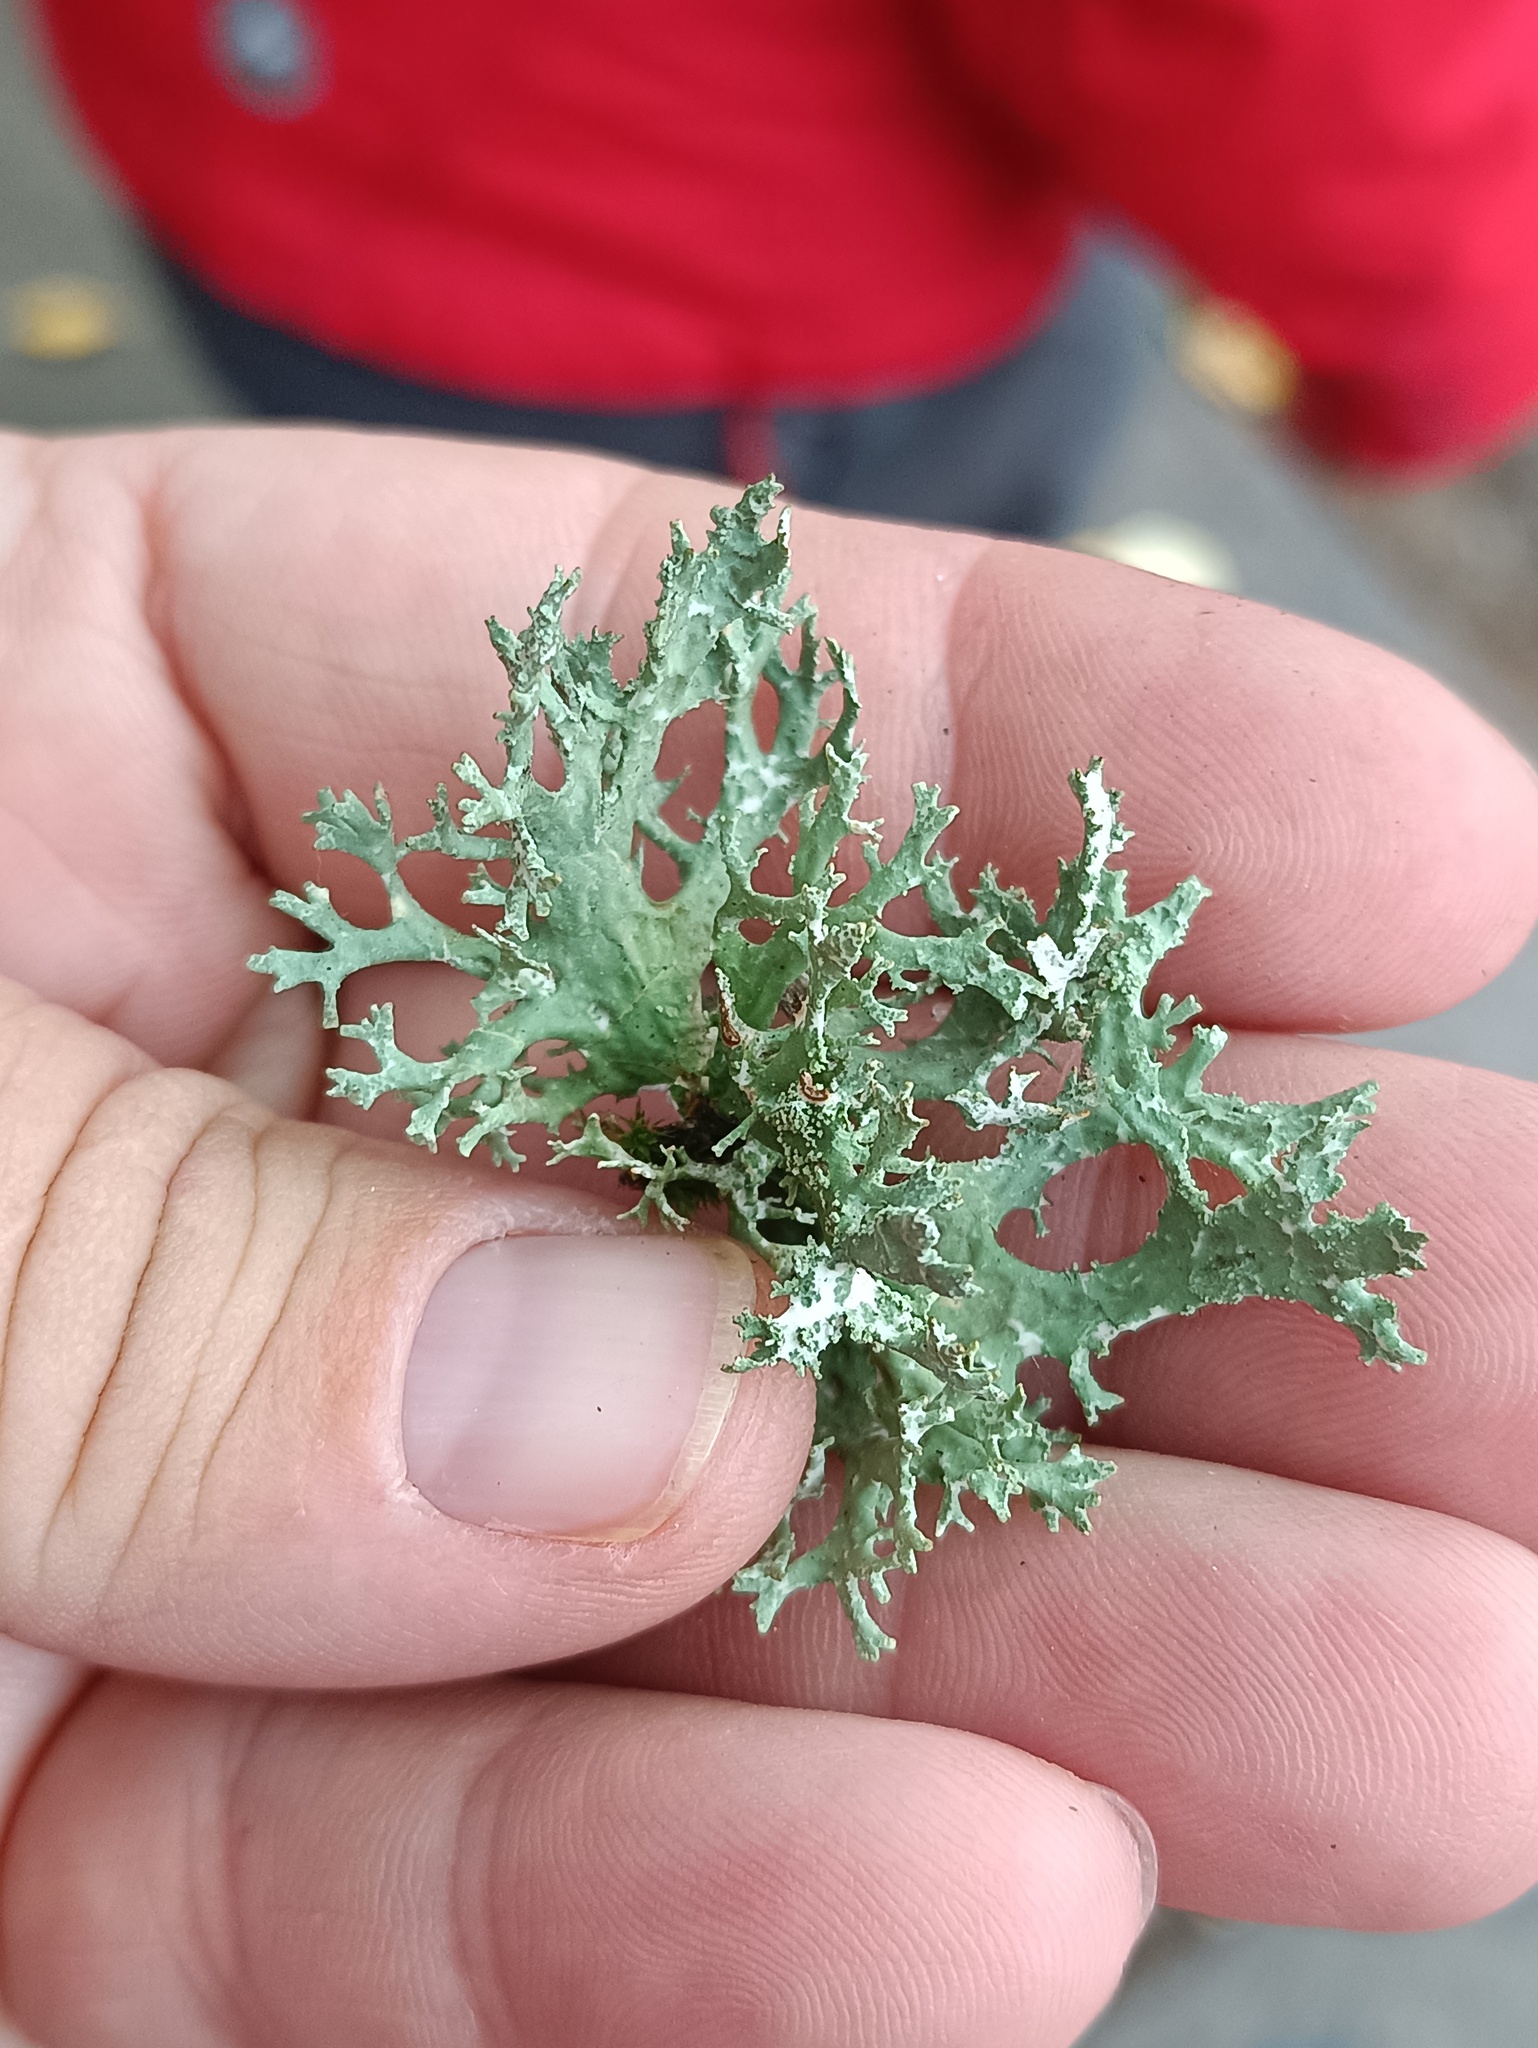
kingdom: Fungi
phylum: Ascomycota
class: Lecanoromycetes
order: Lecanorales
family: Parmeliaceae
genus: Evernia
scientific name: Evernia prunastri
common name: Oak moss
